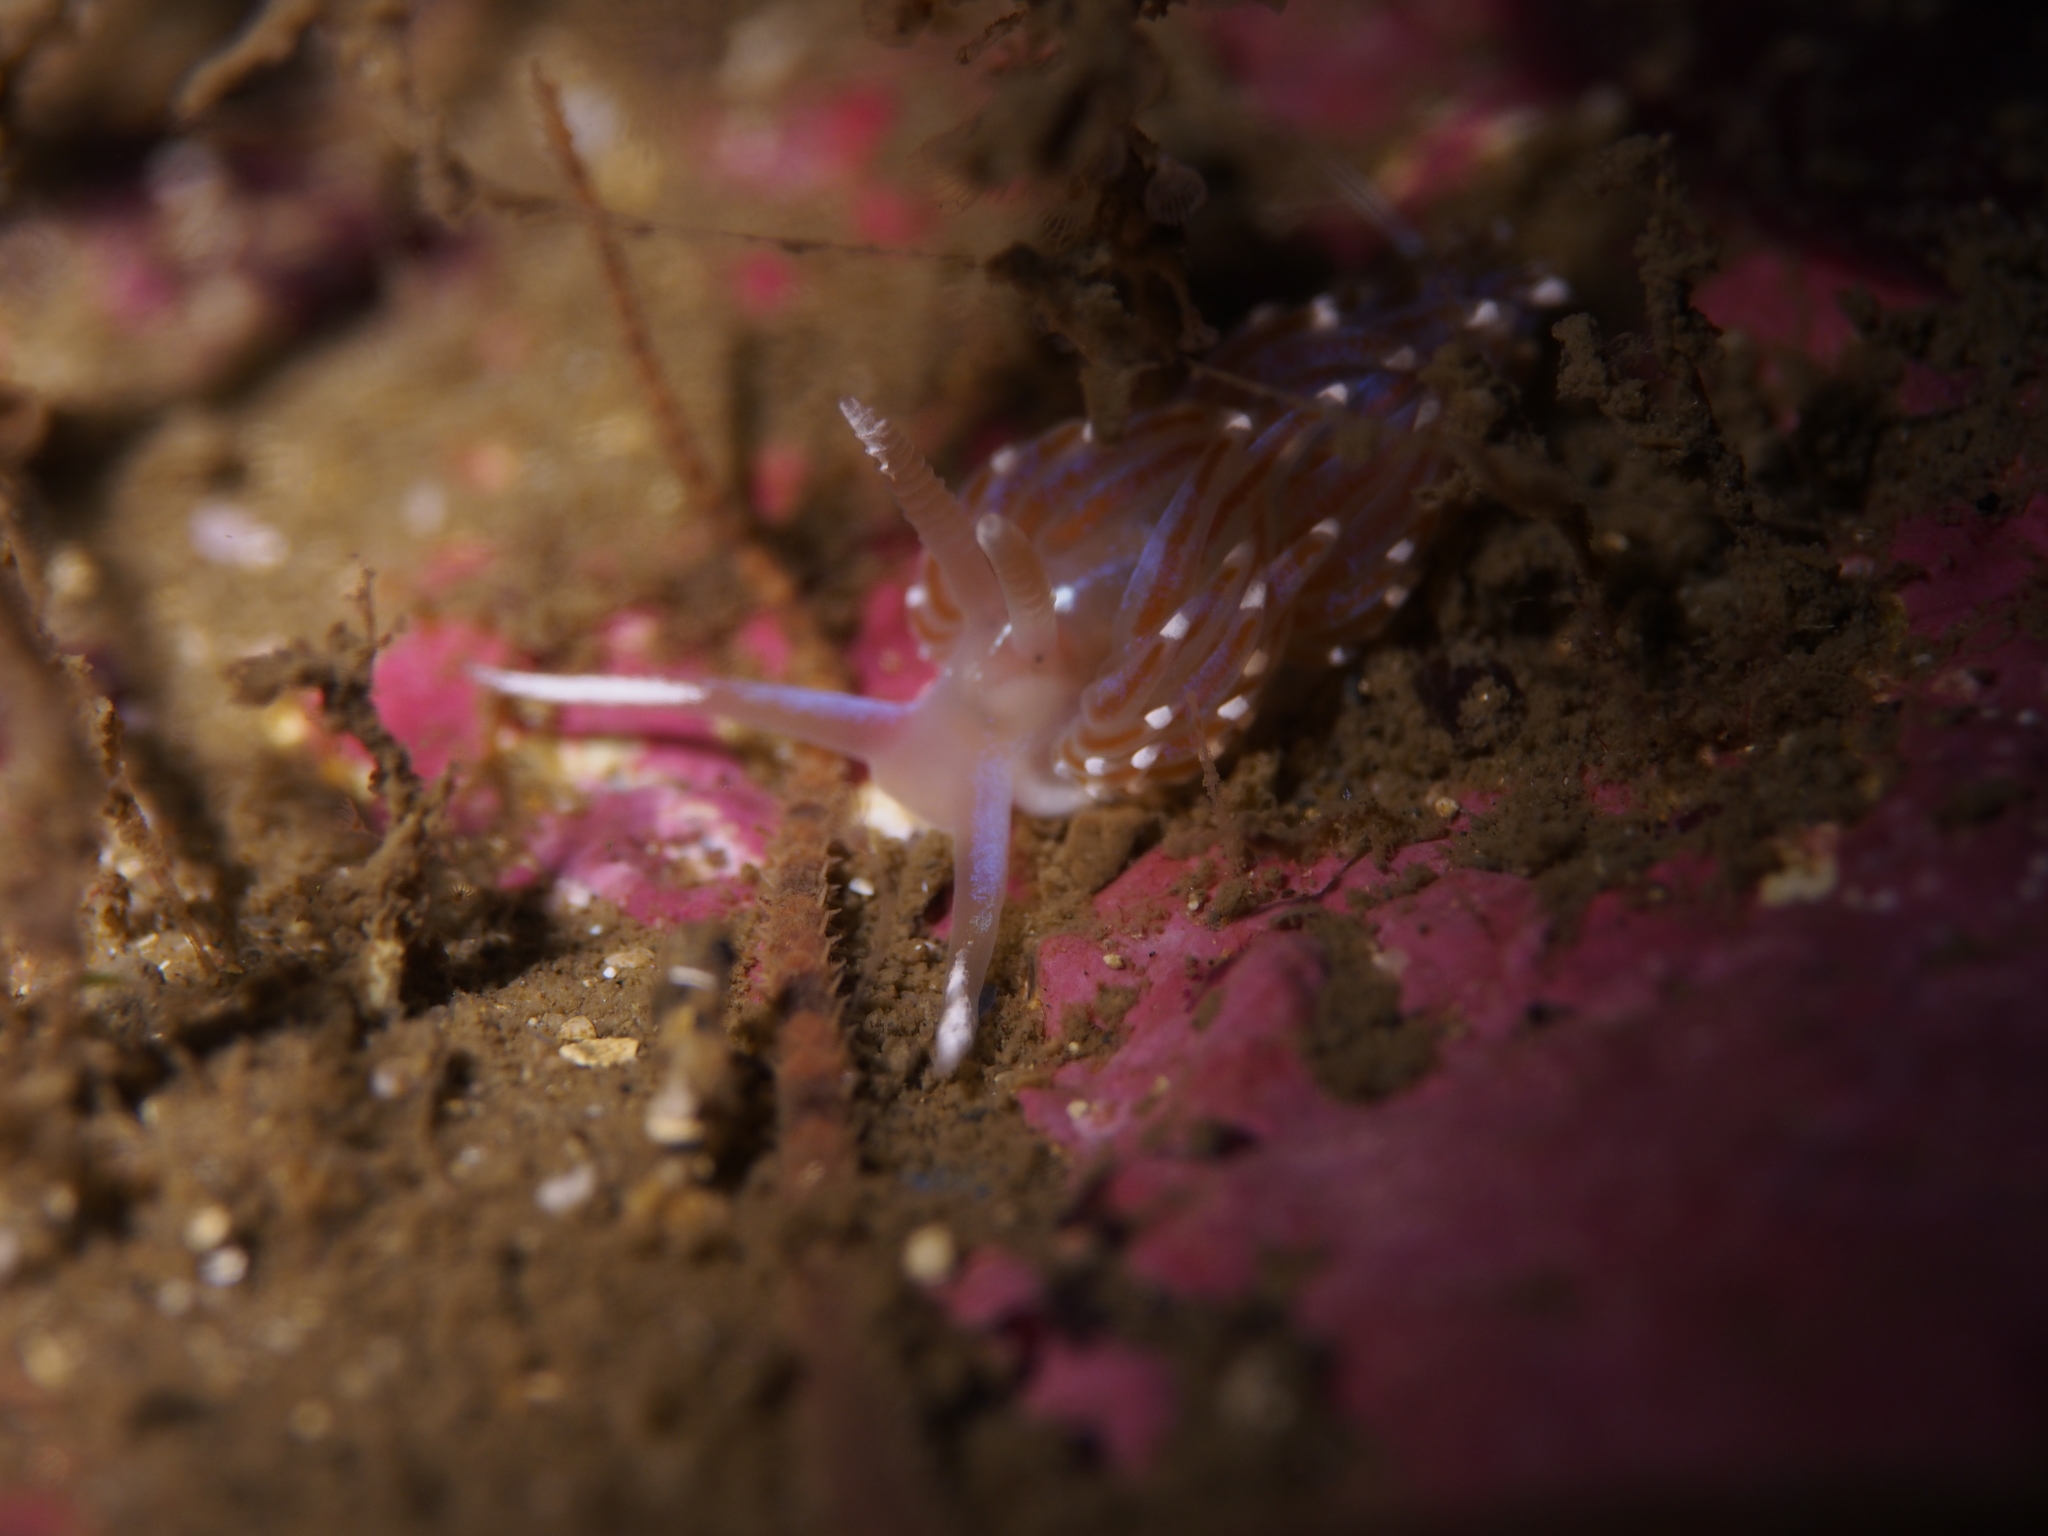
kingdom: Animalia
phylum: Mollusca
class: Gastropoda
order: Nudibranchia
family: Facelinidae
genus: Facelina
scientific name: Facelina auriculata
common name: Slender facelina
